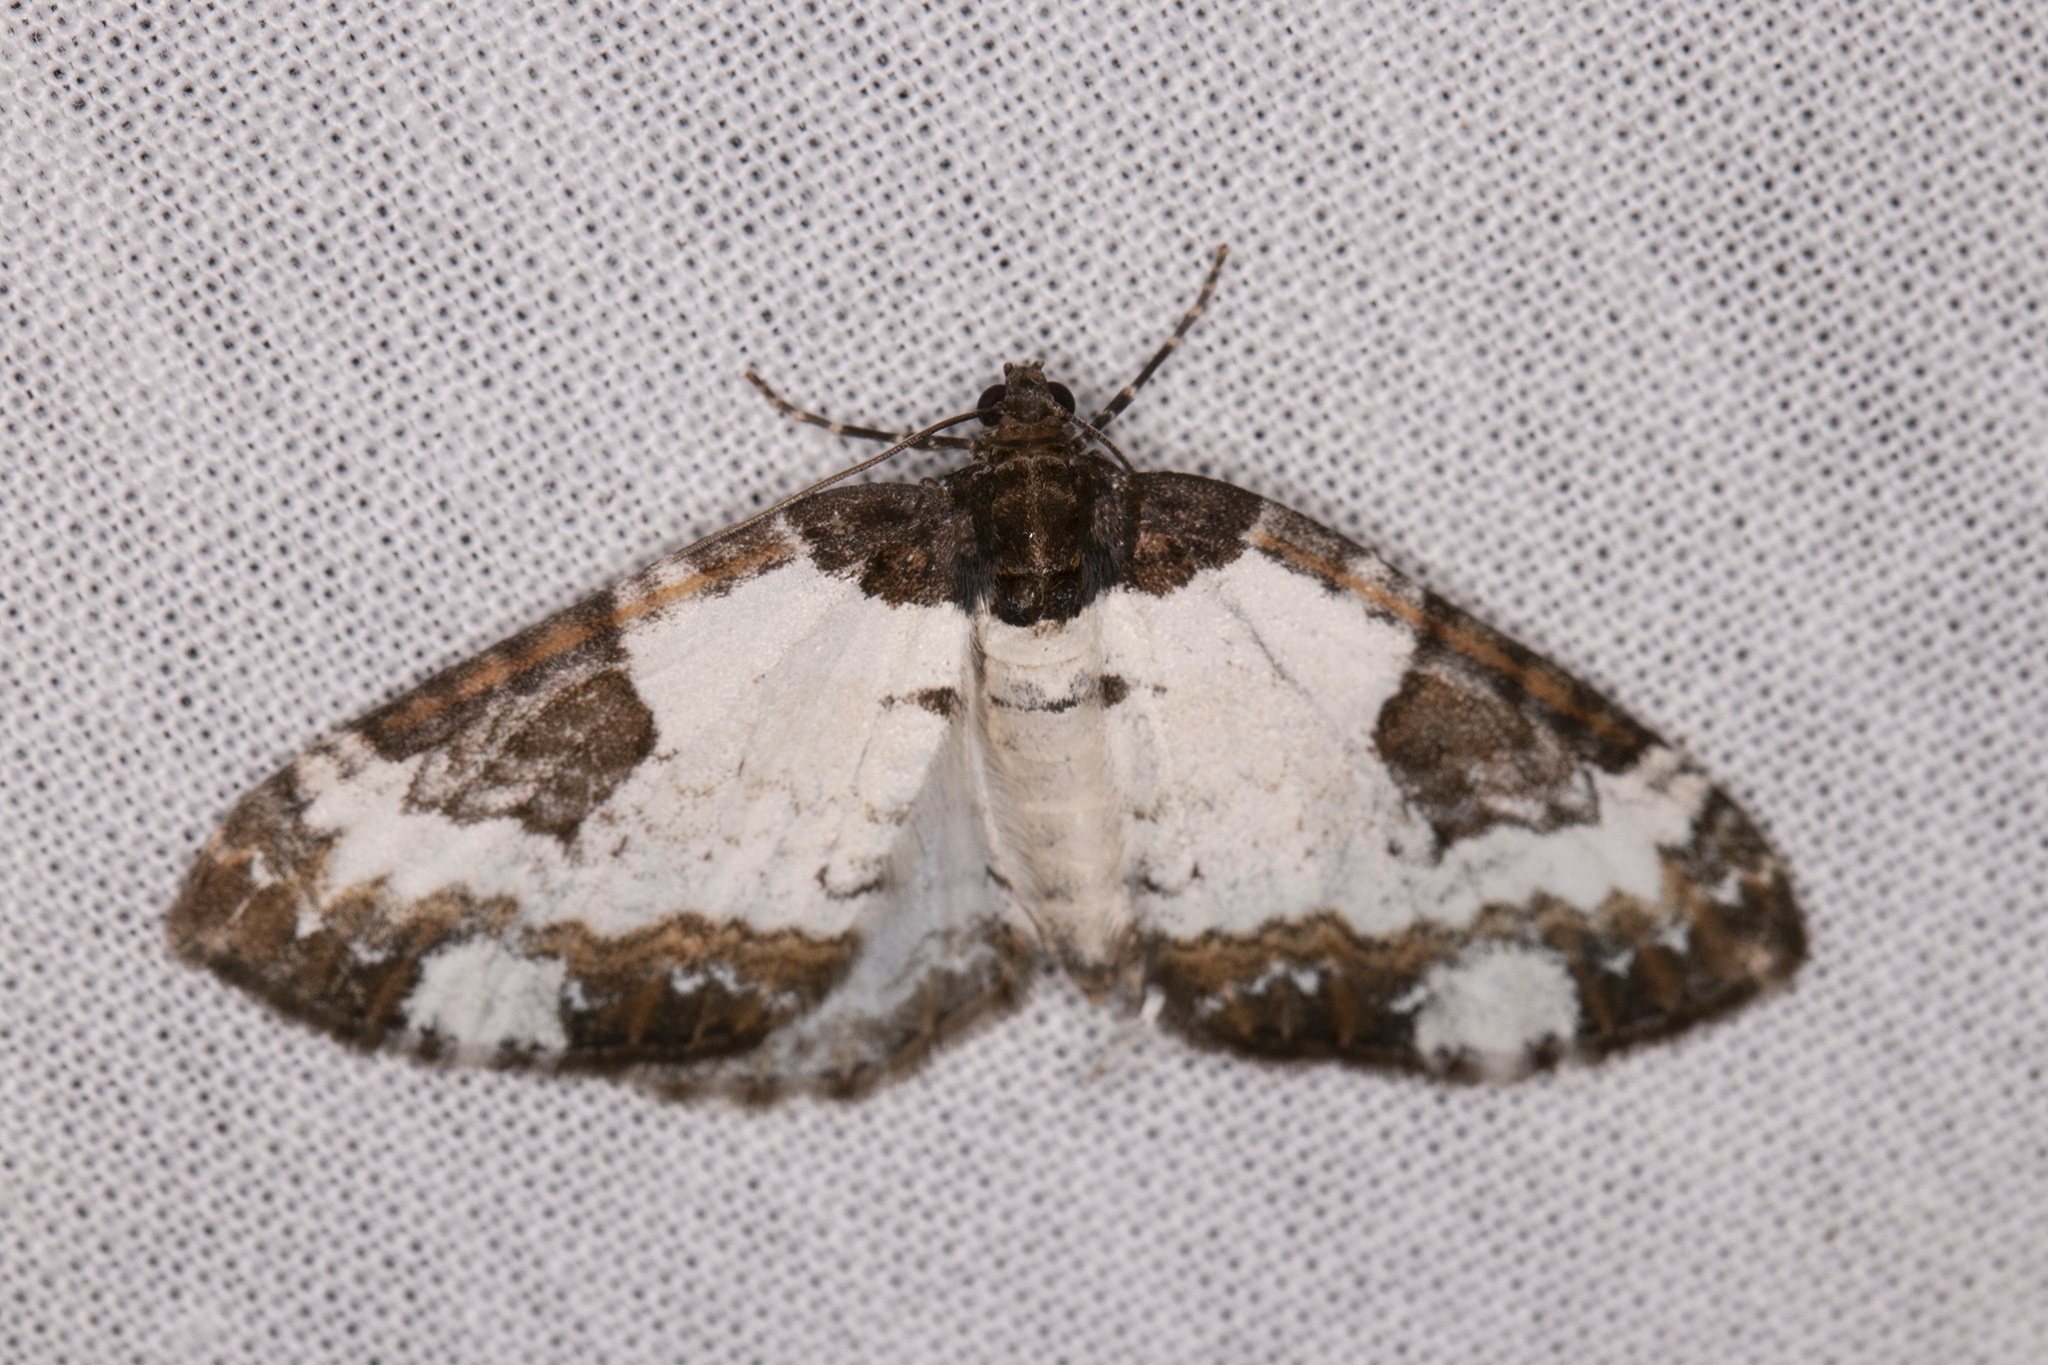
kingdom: Animalia
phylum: Arthropoda
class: Insecta
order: Lepidoptera
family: Geometridae
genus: Melanthia
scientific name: Melanthia procellata
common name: Pretty chalk carpet
